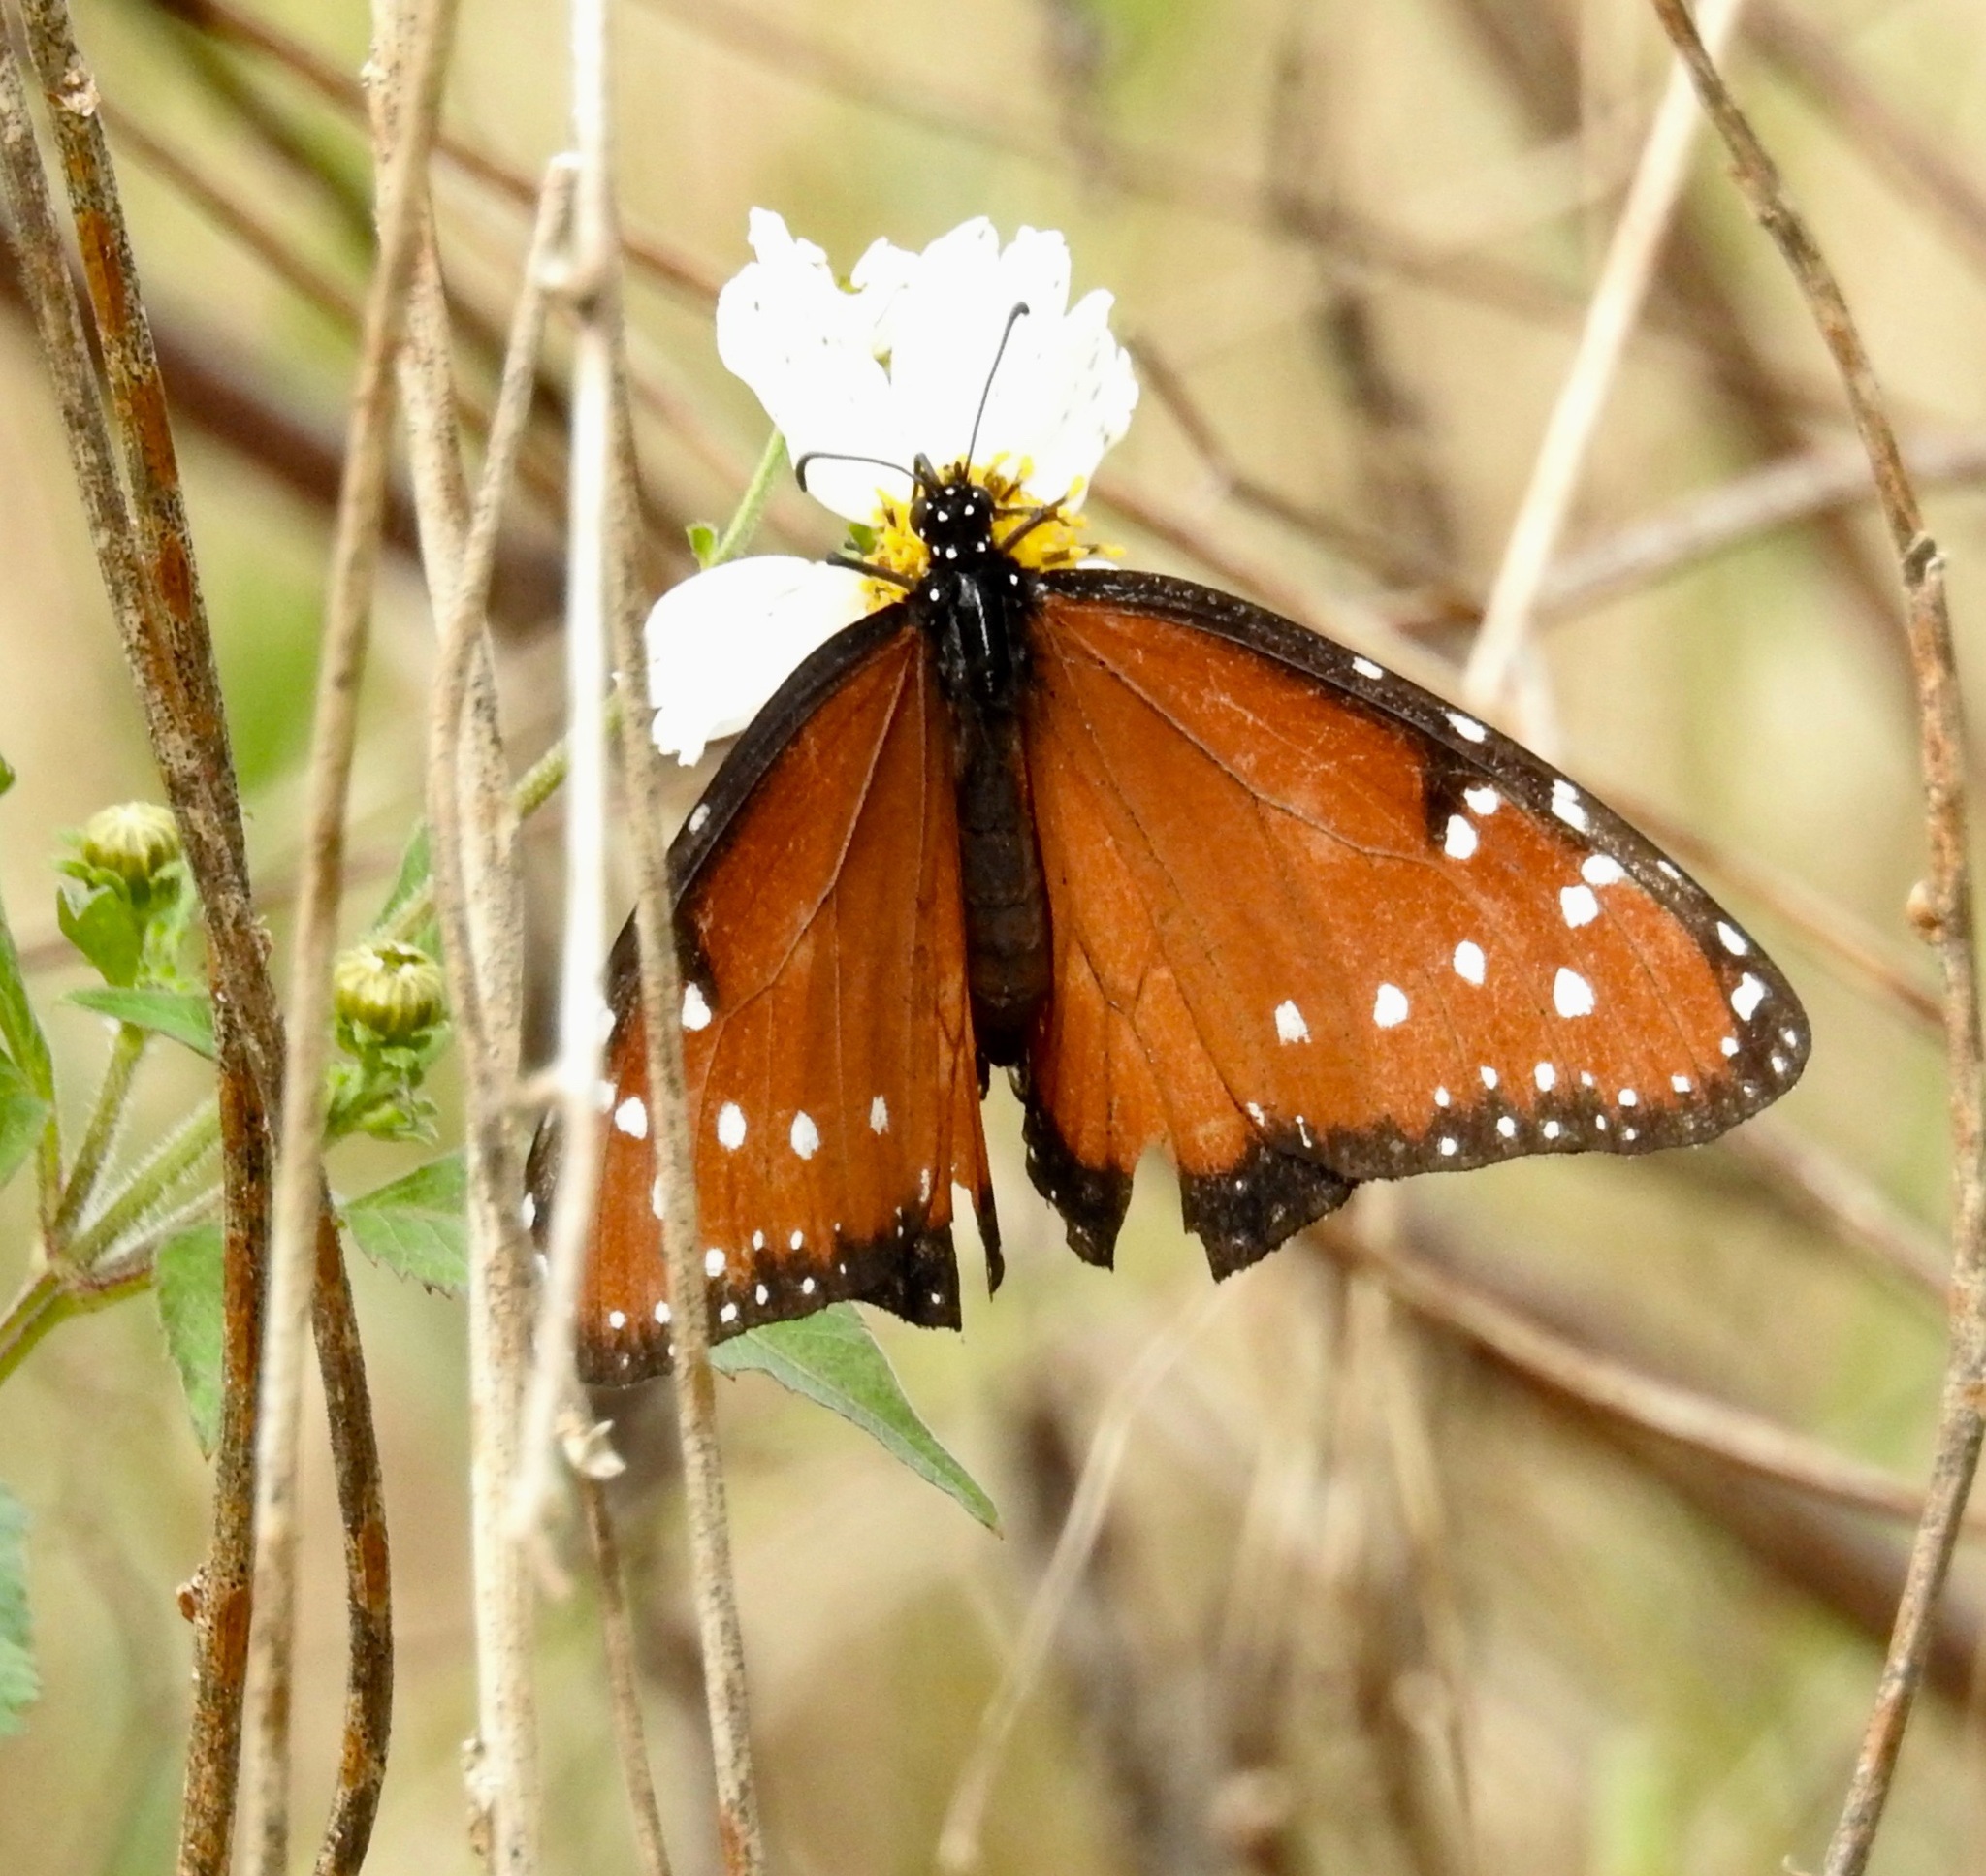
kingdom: Animalia
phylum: Arthropoda
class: Insecta
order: Lepidoptera
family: Nymphalidae
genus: Danaus
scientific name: Danaus gilippus
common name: Queen
